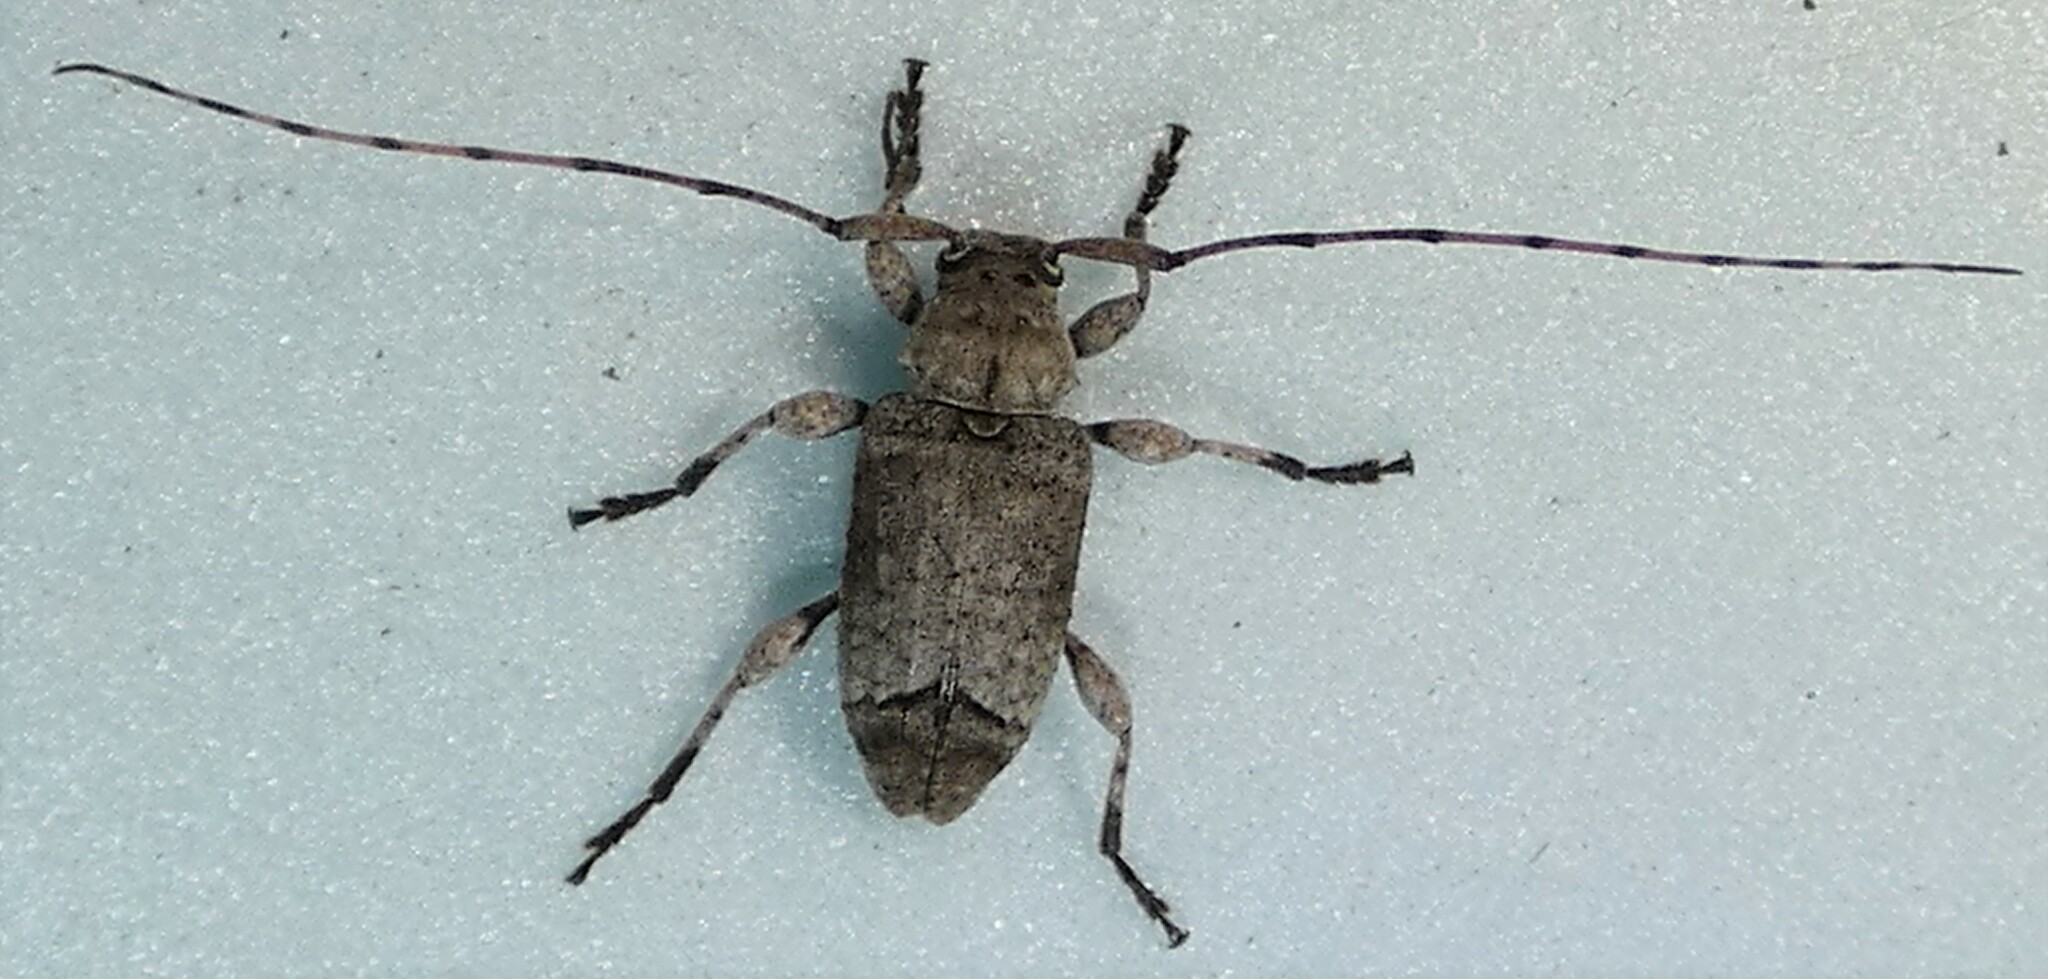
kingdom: Animalia
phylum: Arthropoda
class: Insecta
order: Coleoptera
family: Cerambycidae
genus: Sternidius
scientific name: Sternidius mimeticus
